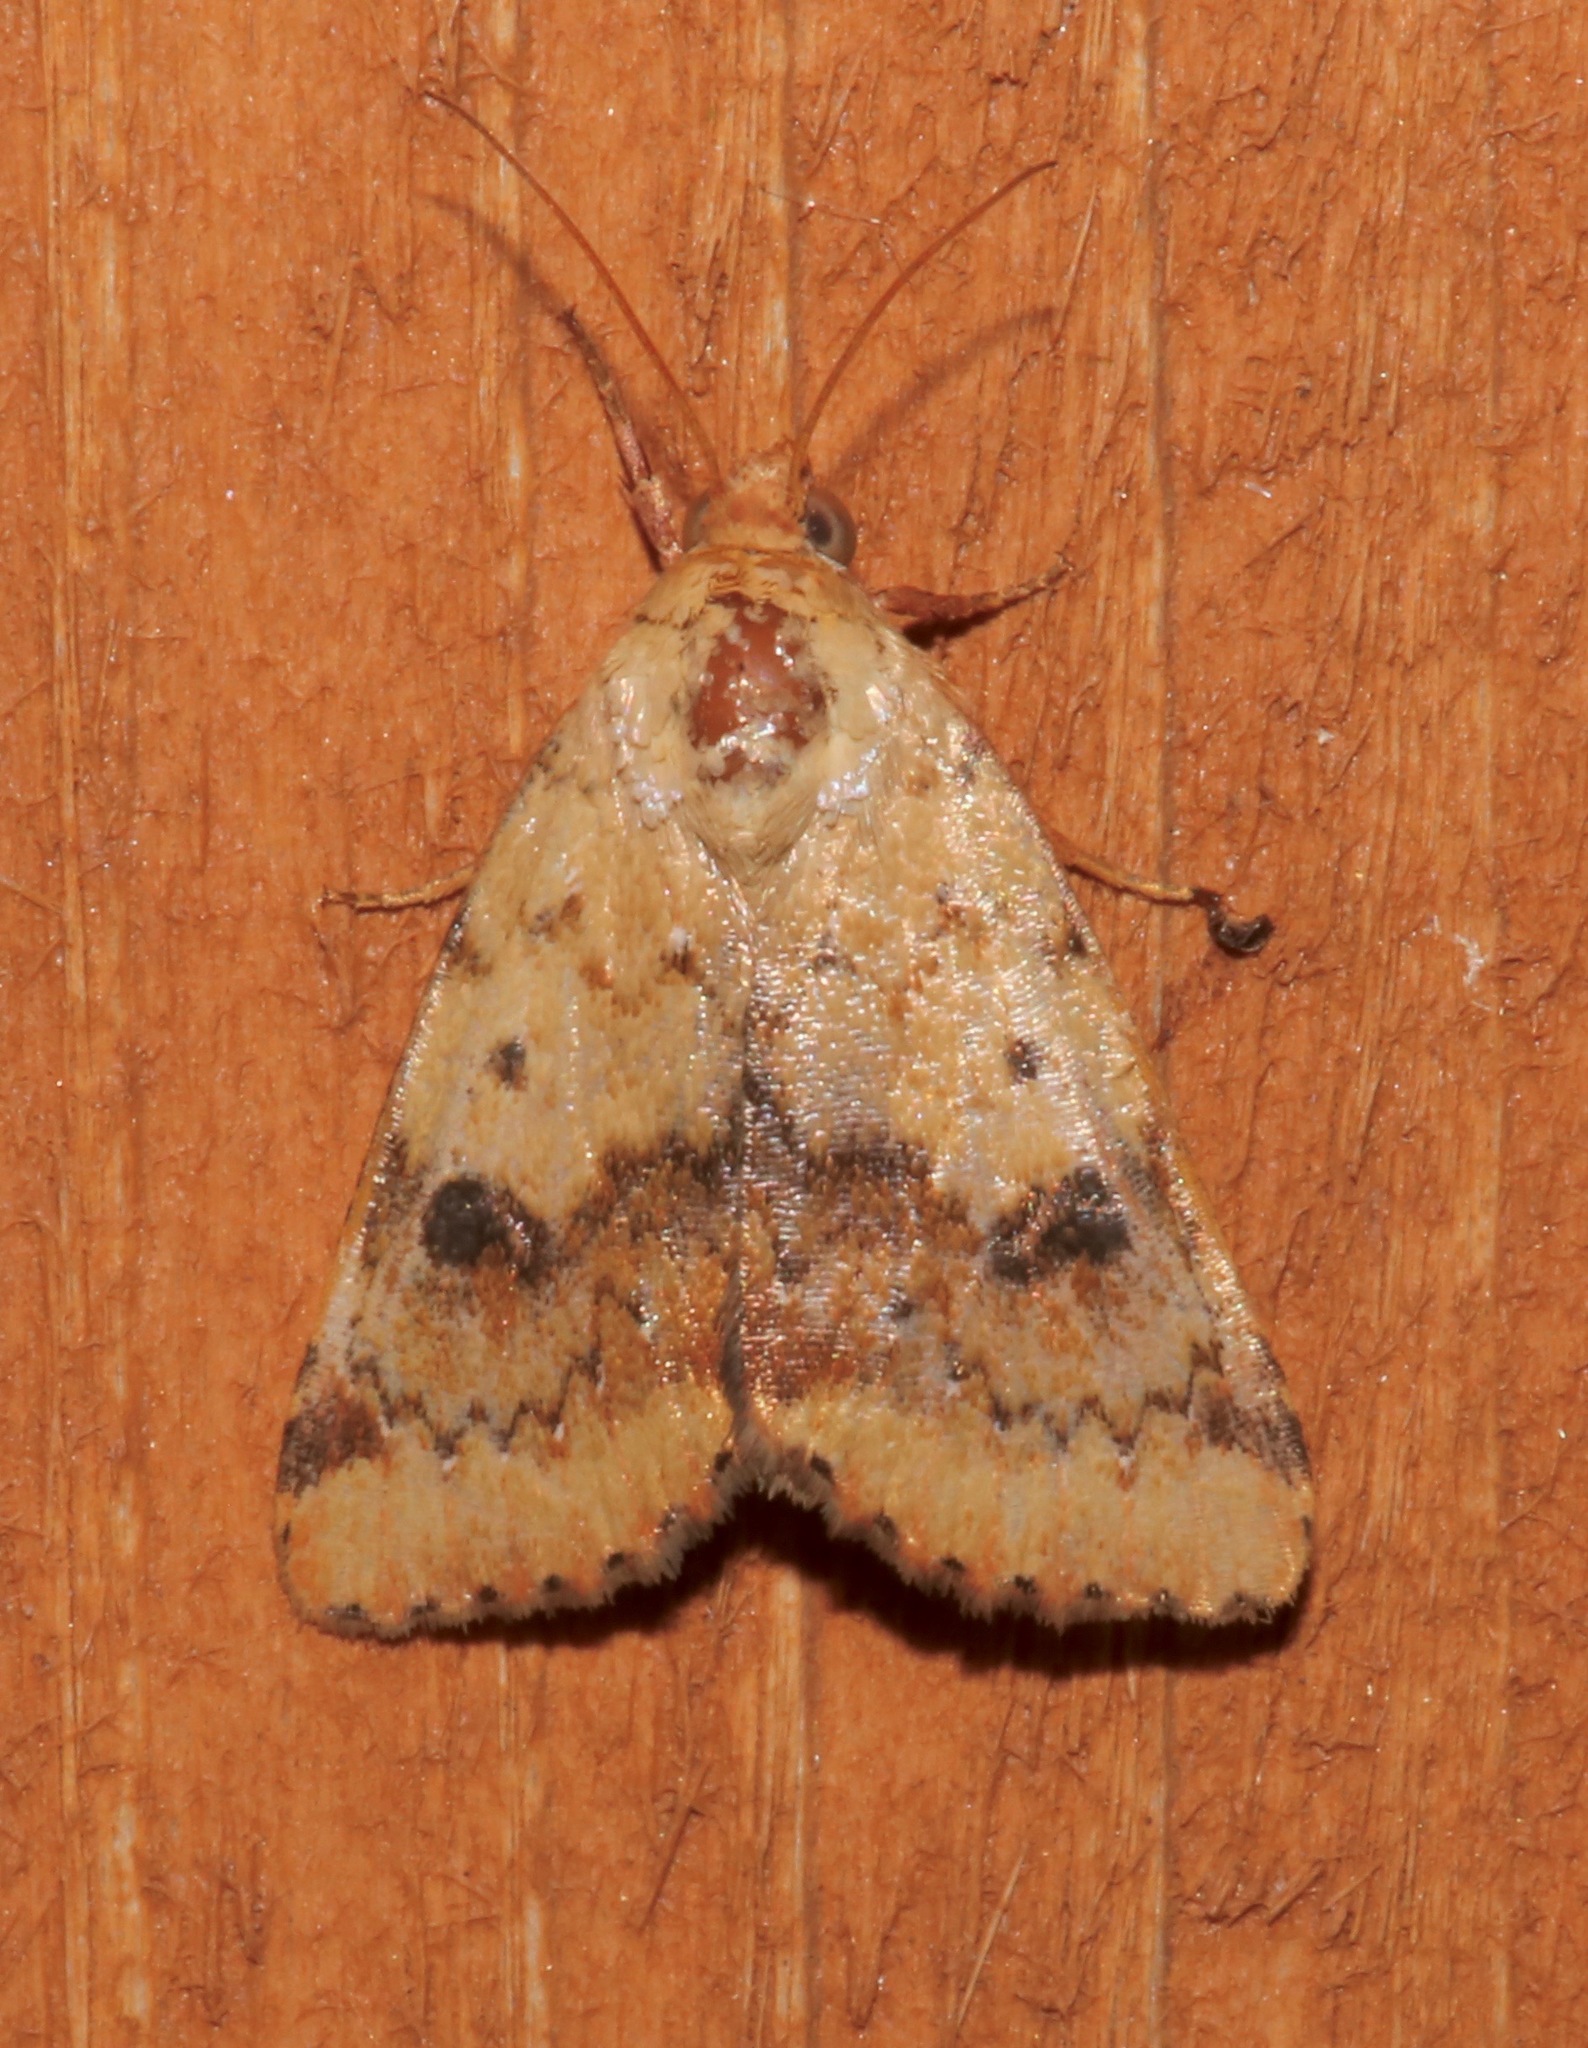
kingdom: Animalia
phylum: Arthropoda
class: Insecta
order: Lepidoptera
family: Noctuidae
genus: Heliocheilus
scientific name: Heliocheilus lupata
